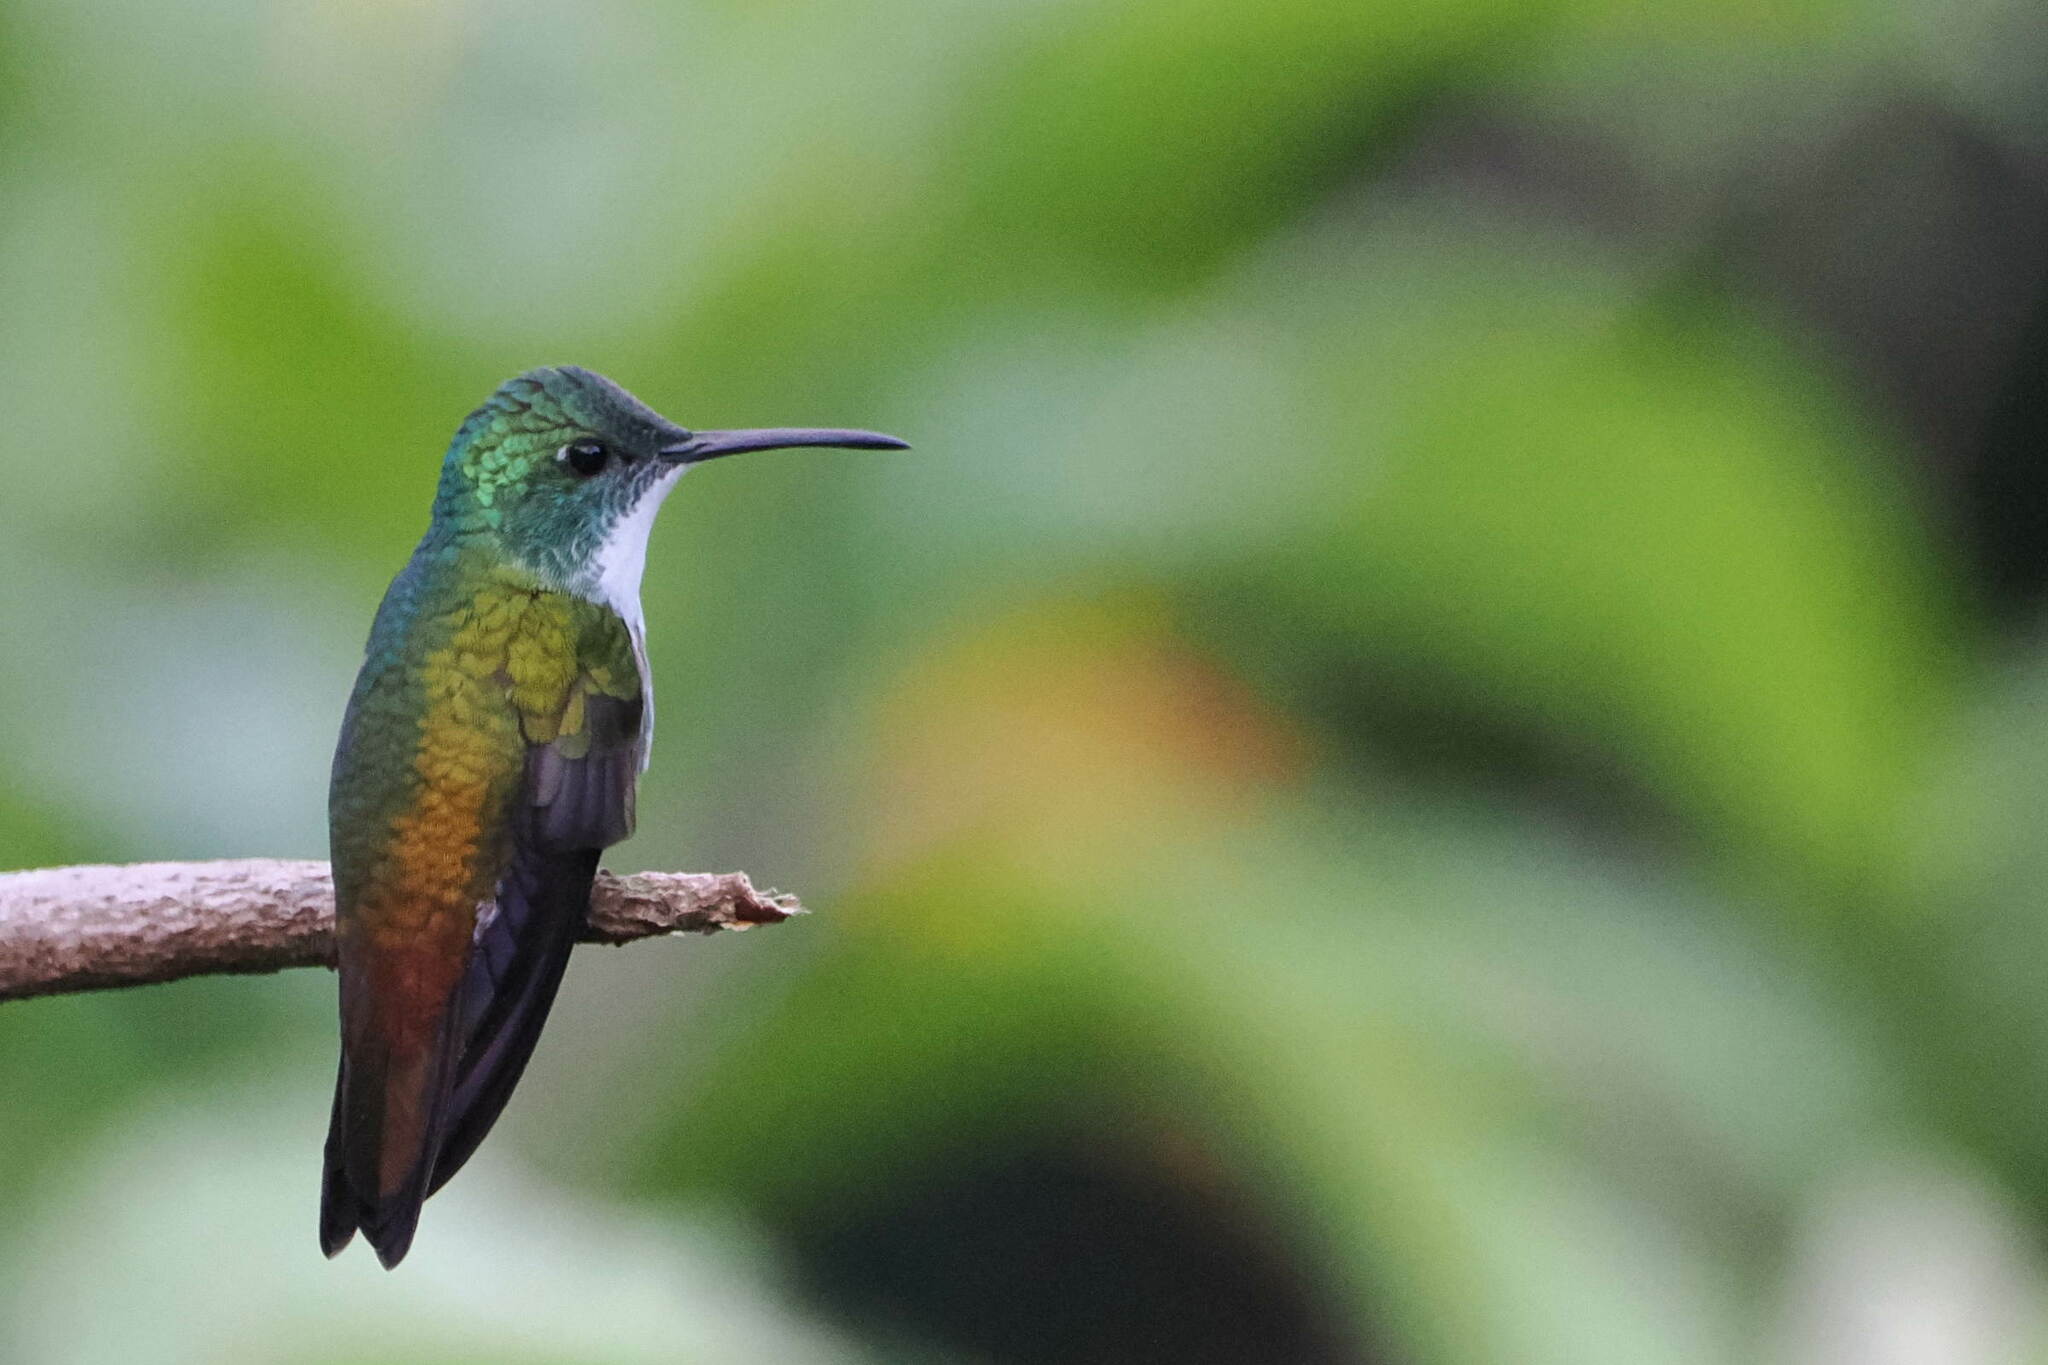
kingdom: Animalia
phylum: Chordata
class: Aves
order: Apodiformes
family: Trochilidae
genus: Chrysuronia
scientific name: Chrysuronia brevirostris
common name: White-chested emerald
